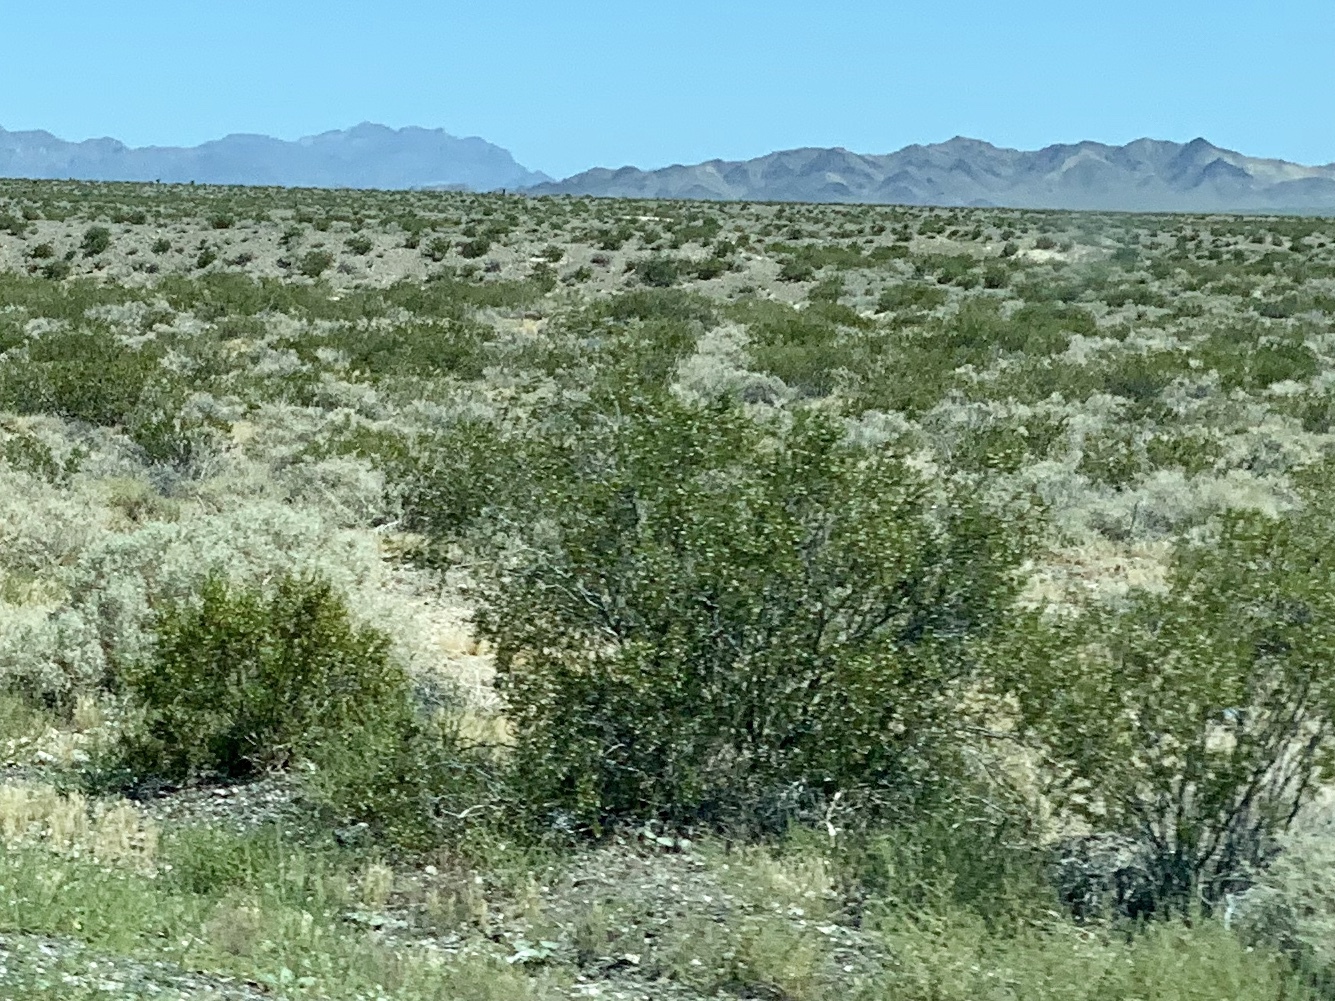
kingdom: Plantae
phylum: Tracheophyta
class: Magnoliopsida
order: Zygophyllales
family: Zygophyllaceae
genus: Larrea
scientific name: Larrea tridentata
